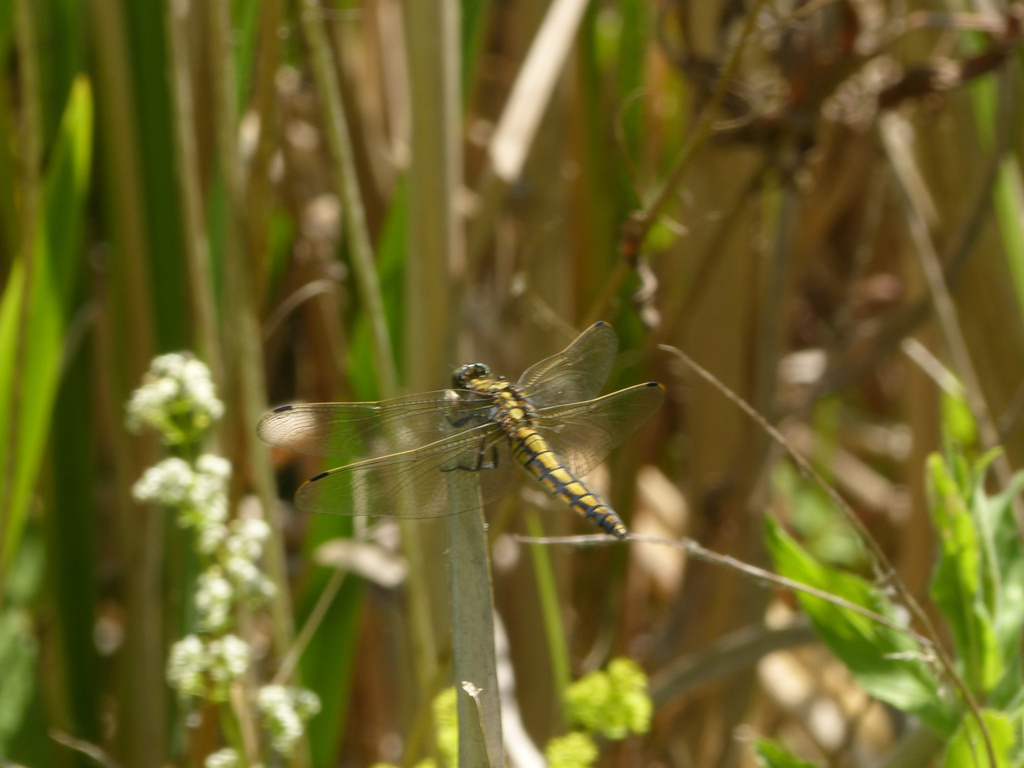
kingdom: Animalia
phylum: Arthropoda
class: Insecta
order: Odonata
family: Libellulidae
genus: Orthetrum
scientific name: Orthetrum cancellatum
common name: Black-tailed skimmer
